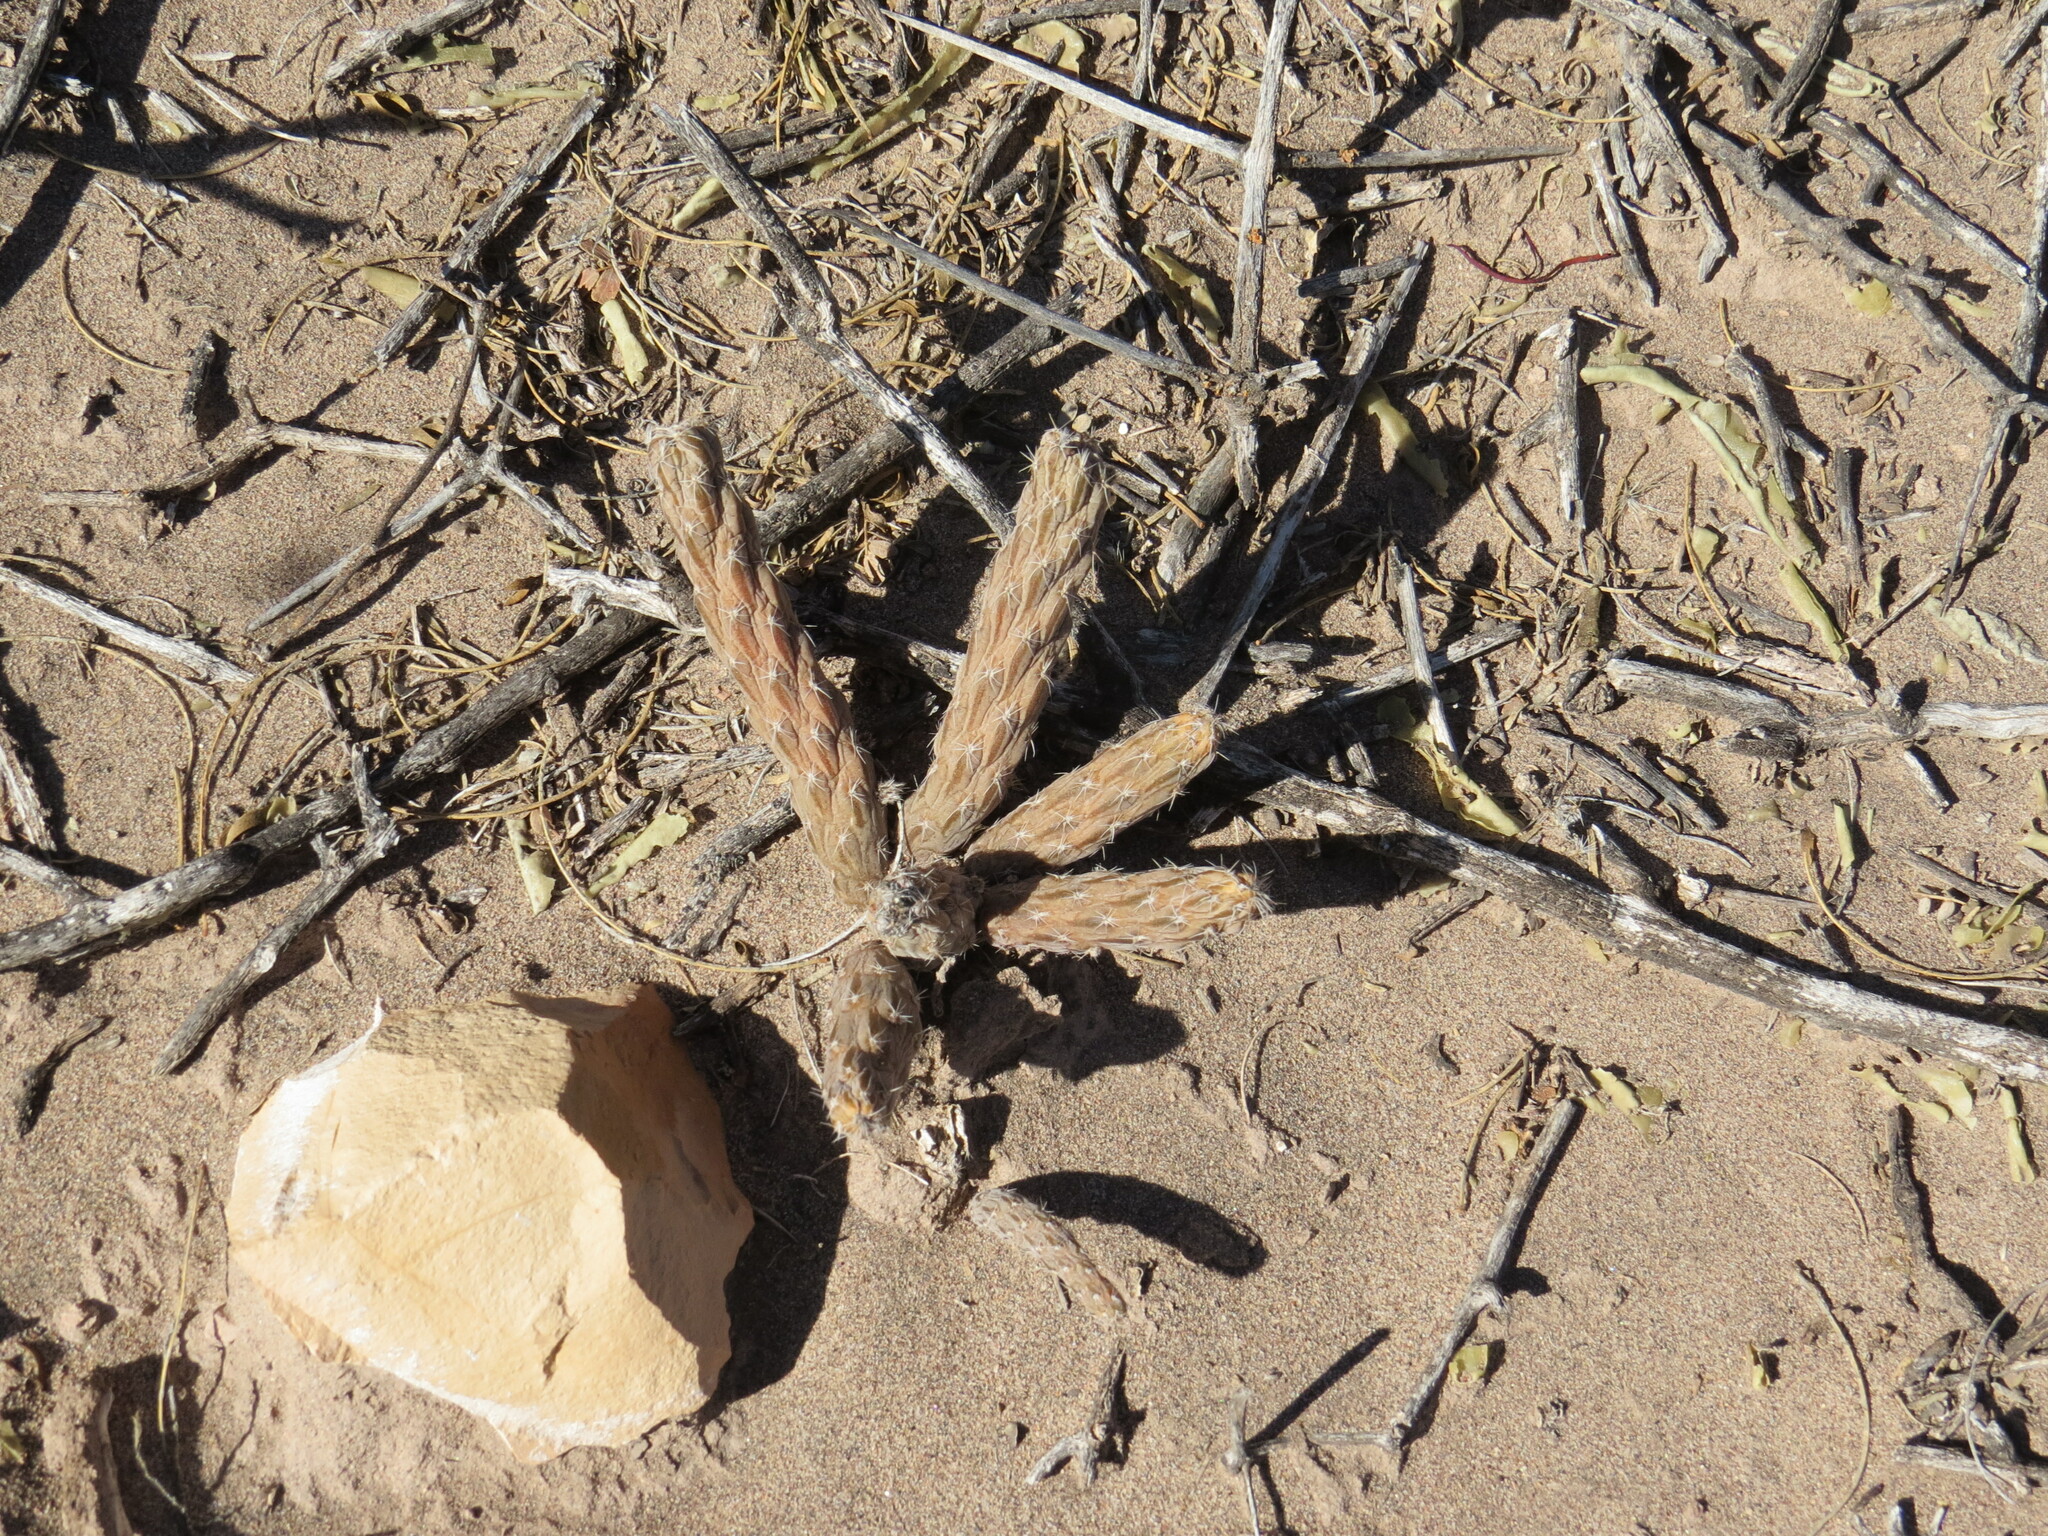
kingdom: Plantae
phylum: Tracheophyta
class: Magnoliopsida
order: Caryophyllales
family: Cactaceae
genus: Pterocactus
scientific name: Pterocactus tuberosus
